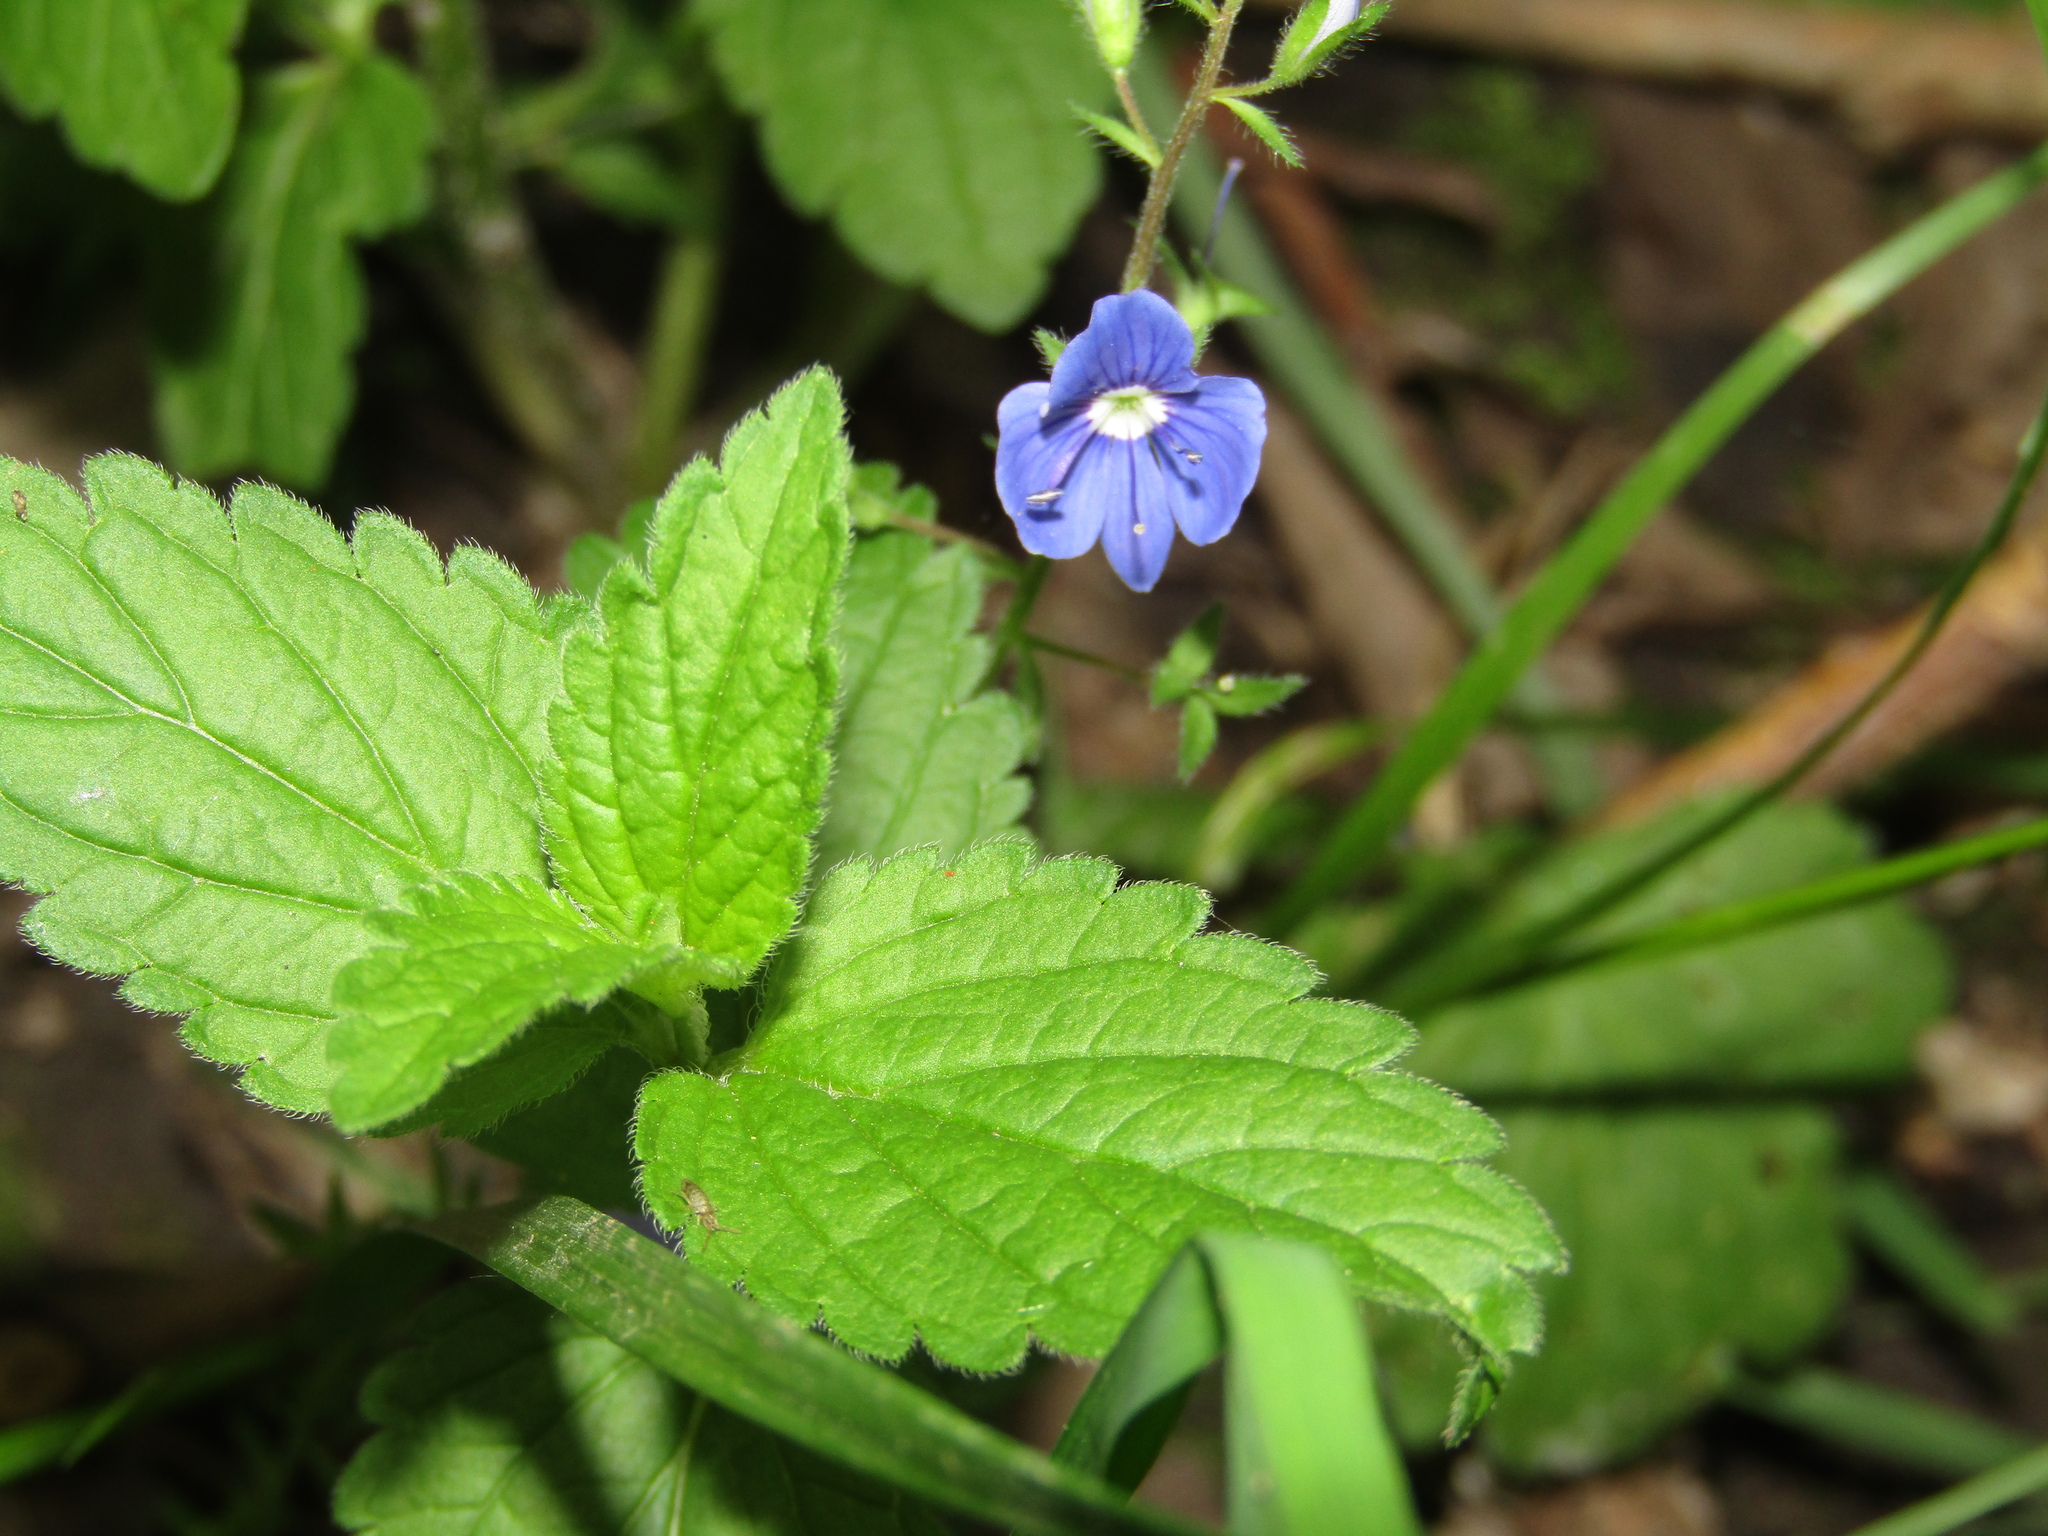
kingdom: Plantae
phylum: Tracheophyta
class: Magnoliopsida
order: Lamiales
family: Plantaginaceae
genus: Veronica
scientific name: Veronica chamaedrys
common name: Germander speedwell
